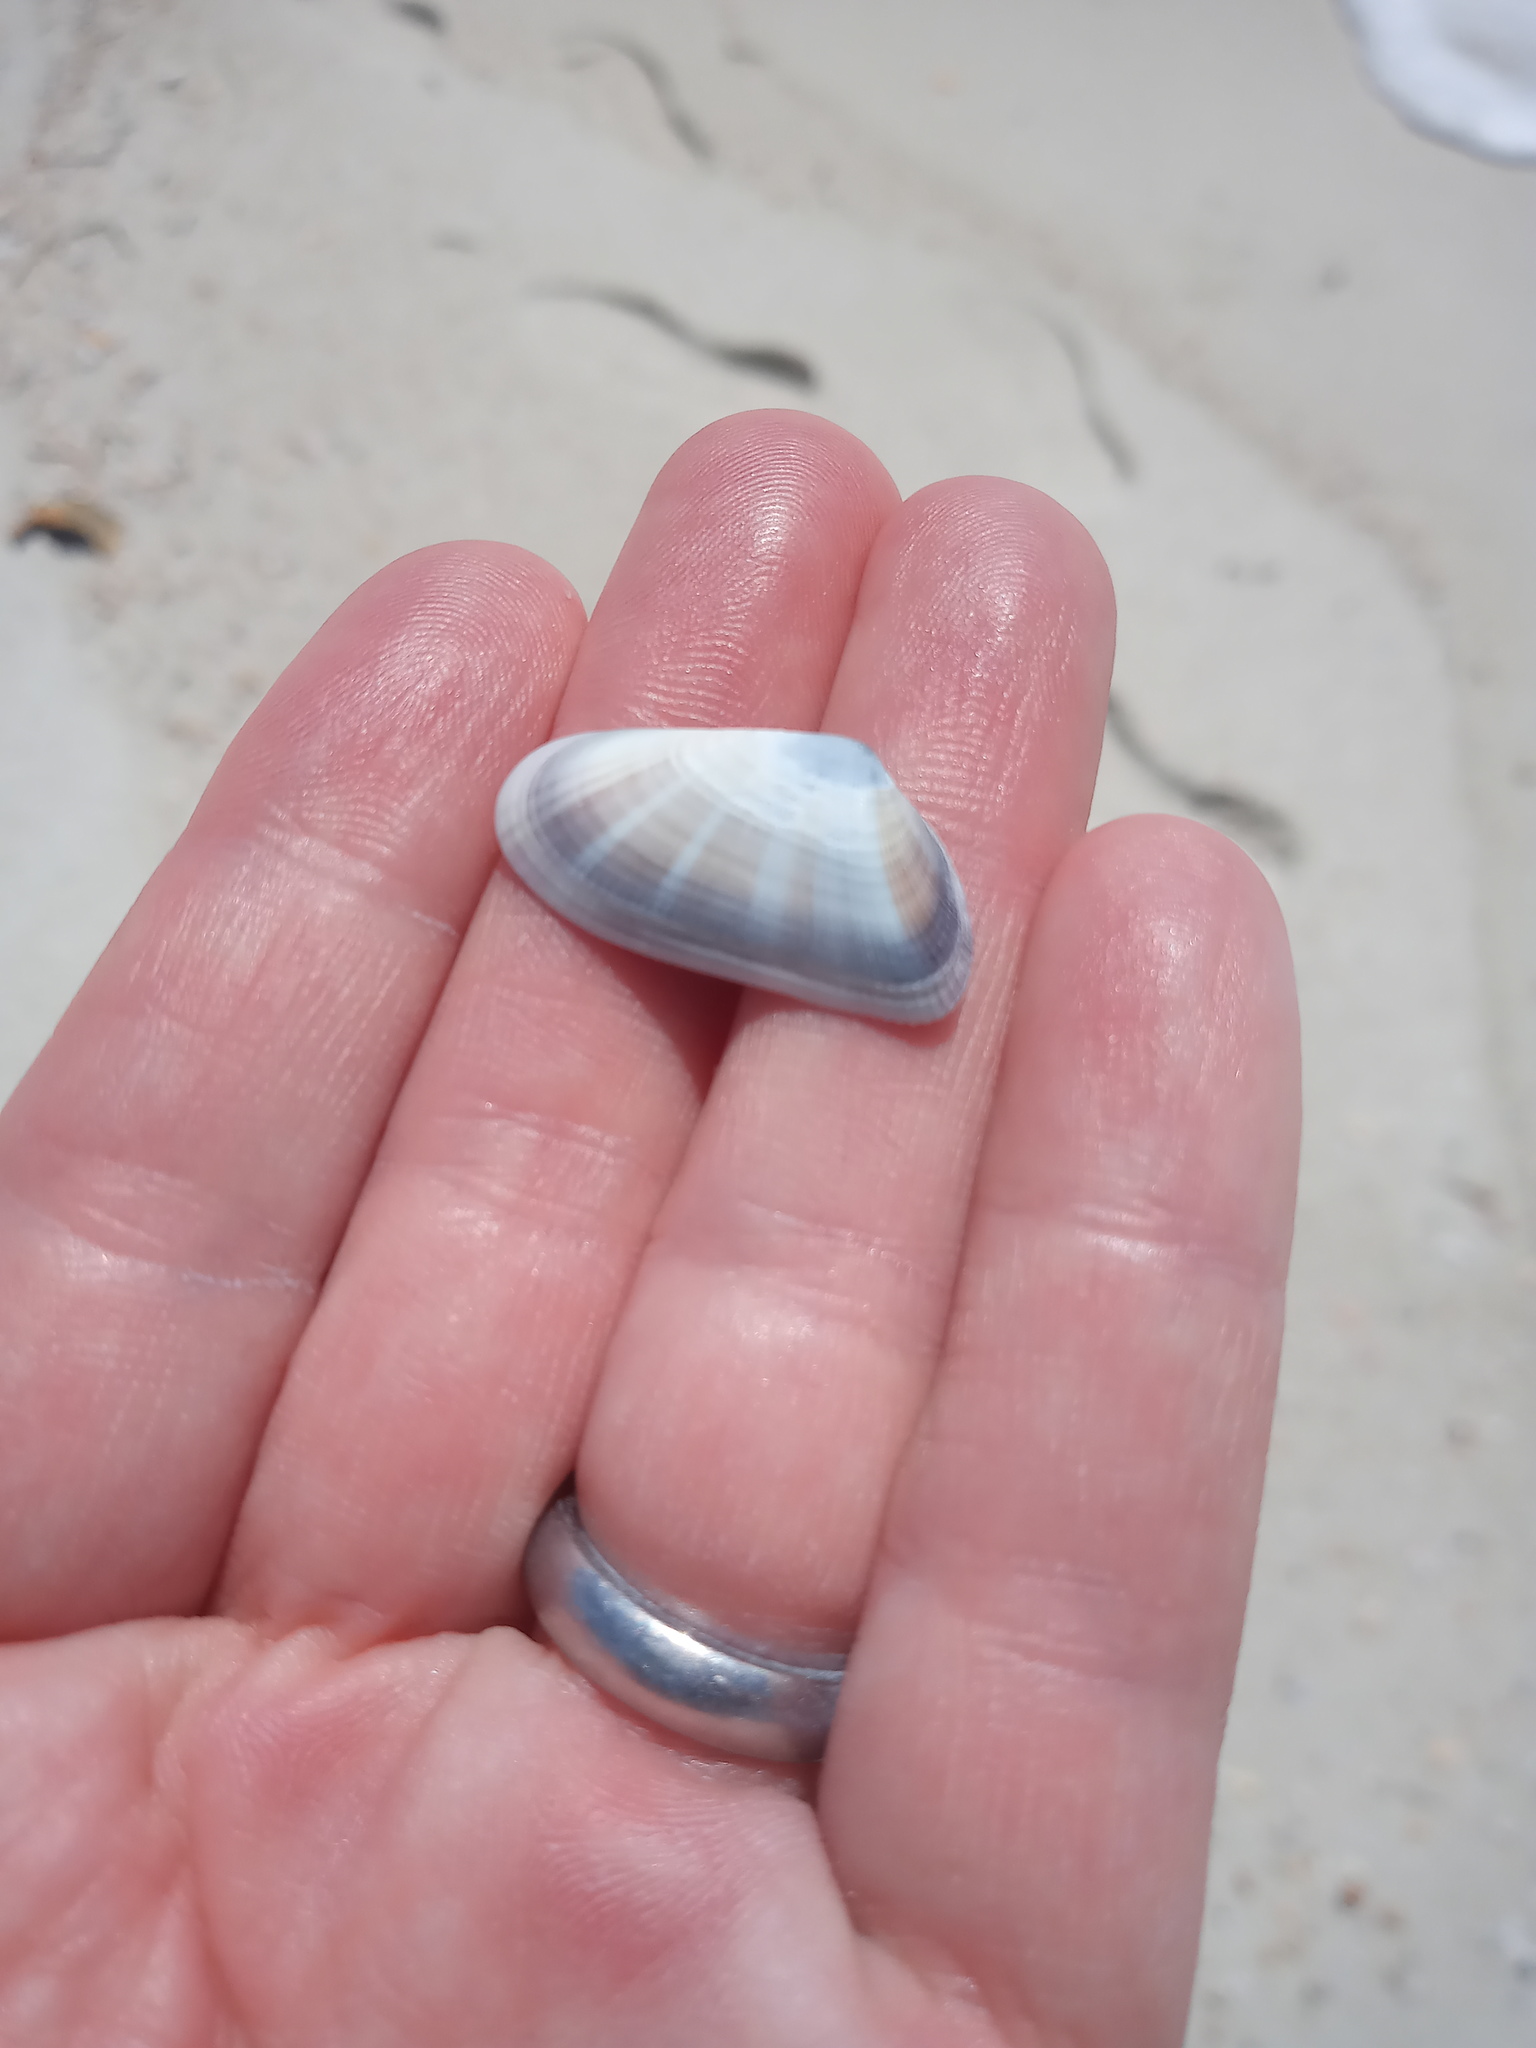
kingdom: Animalia
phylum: Mollusca
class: Bivalvia
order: Cardiida
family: Donacidae
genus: Donax
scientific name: Donax variabilis
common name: Butterfly shell
